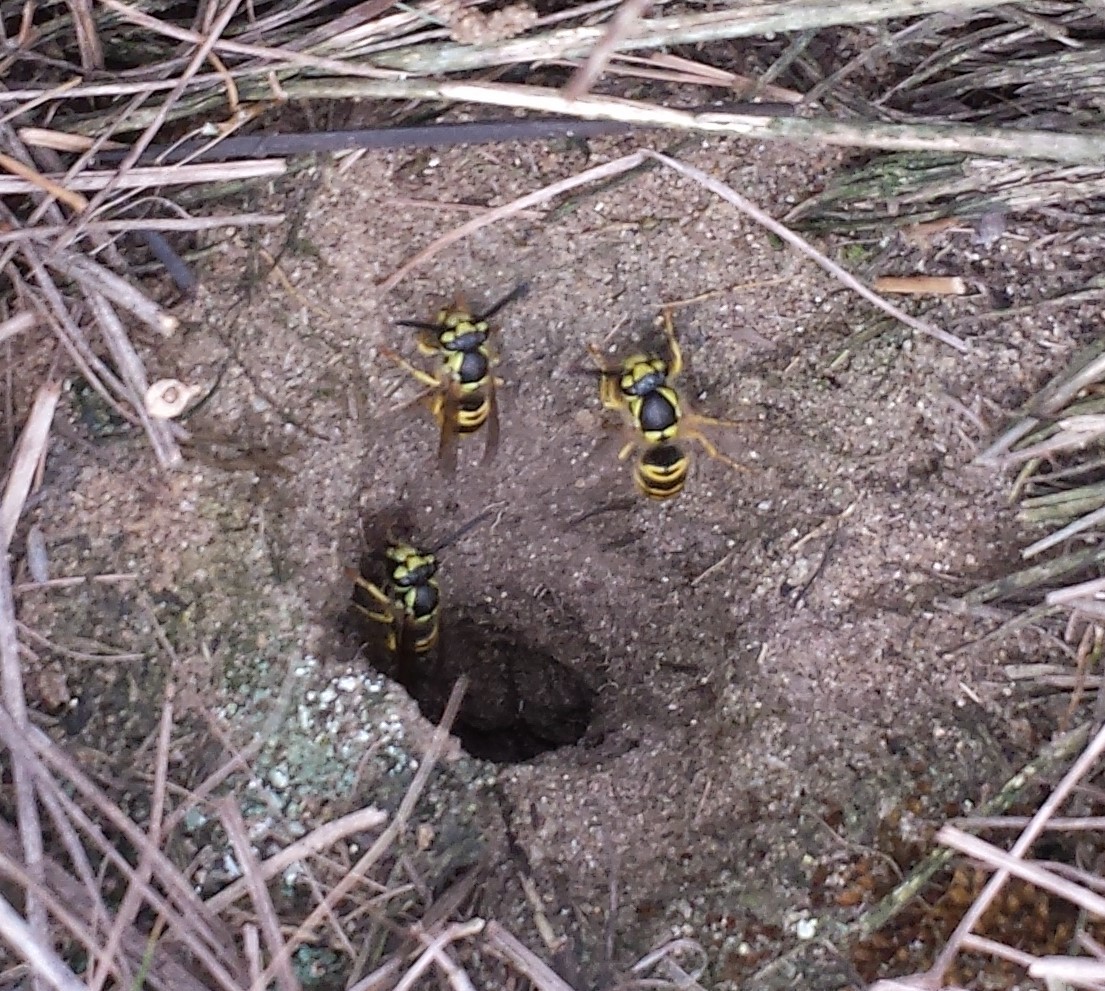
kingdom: Animalia
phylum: Arthropoda
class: Insecta
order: Hymenoptera
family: Vespidae
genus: Vespula
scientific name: Vespula maculifrons
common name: Eastern yellowjacket
